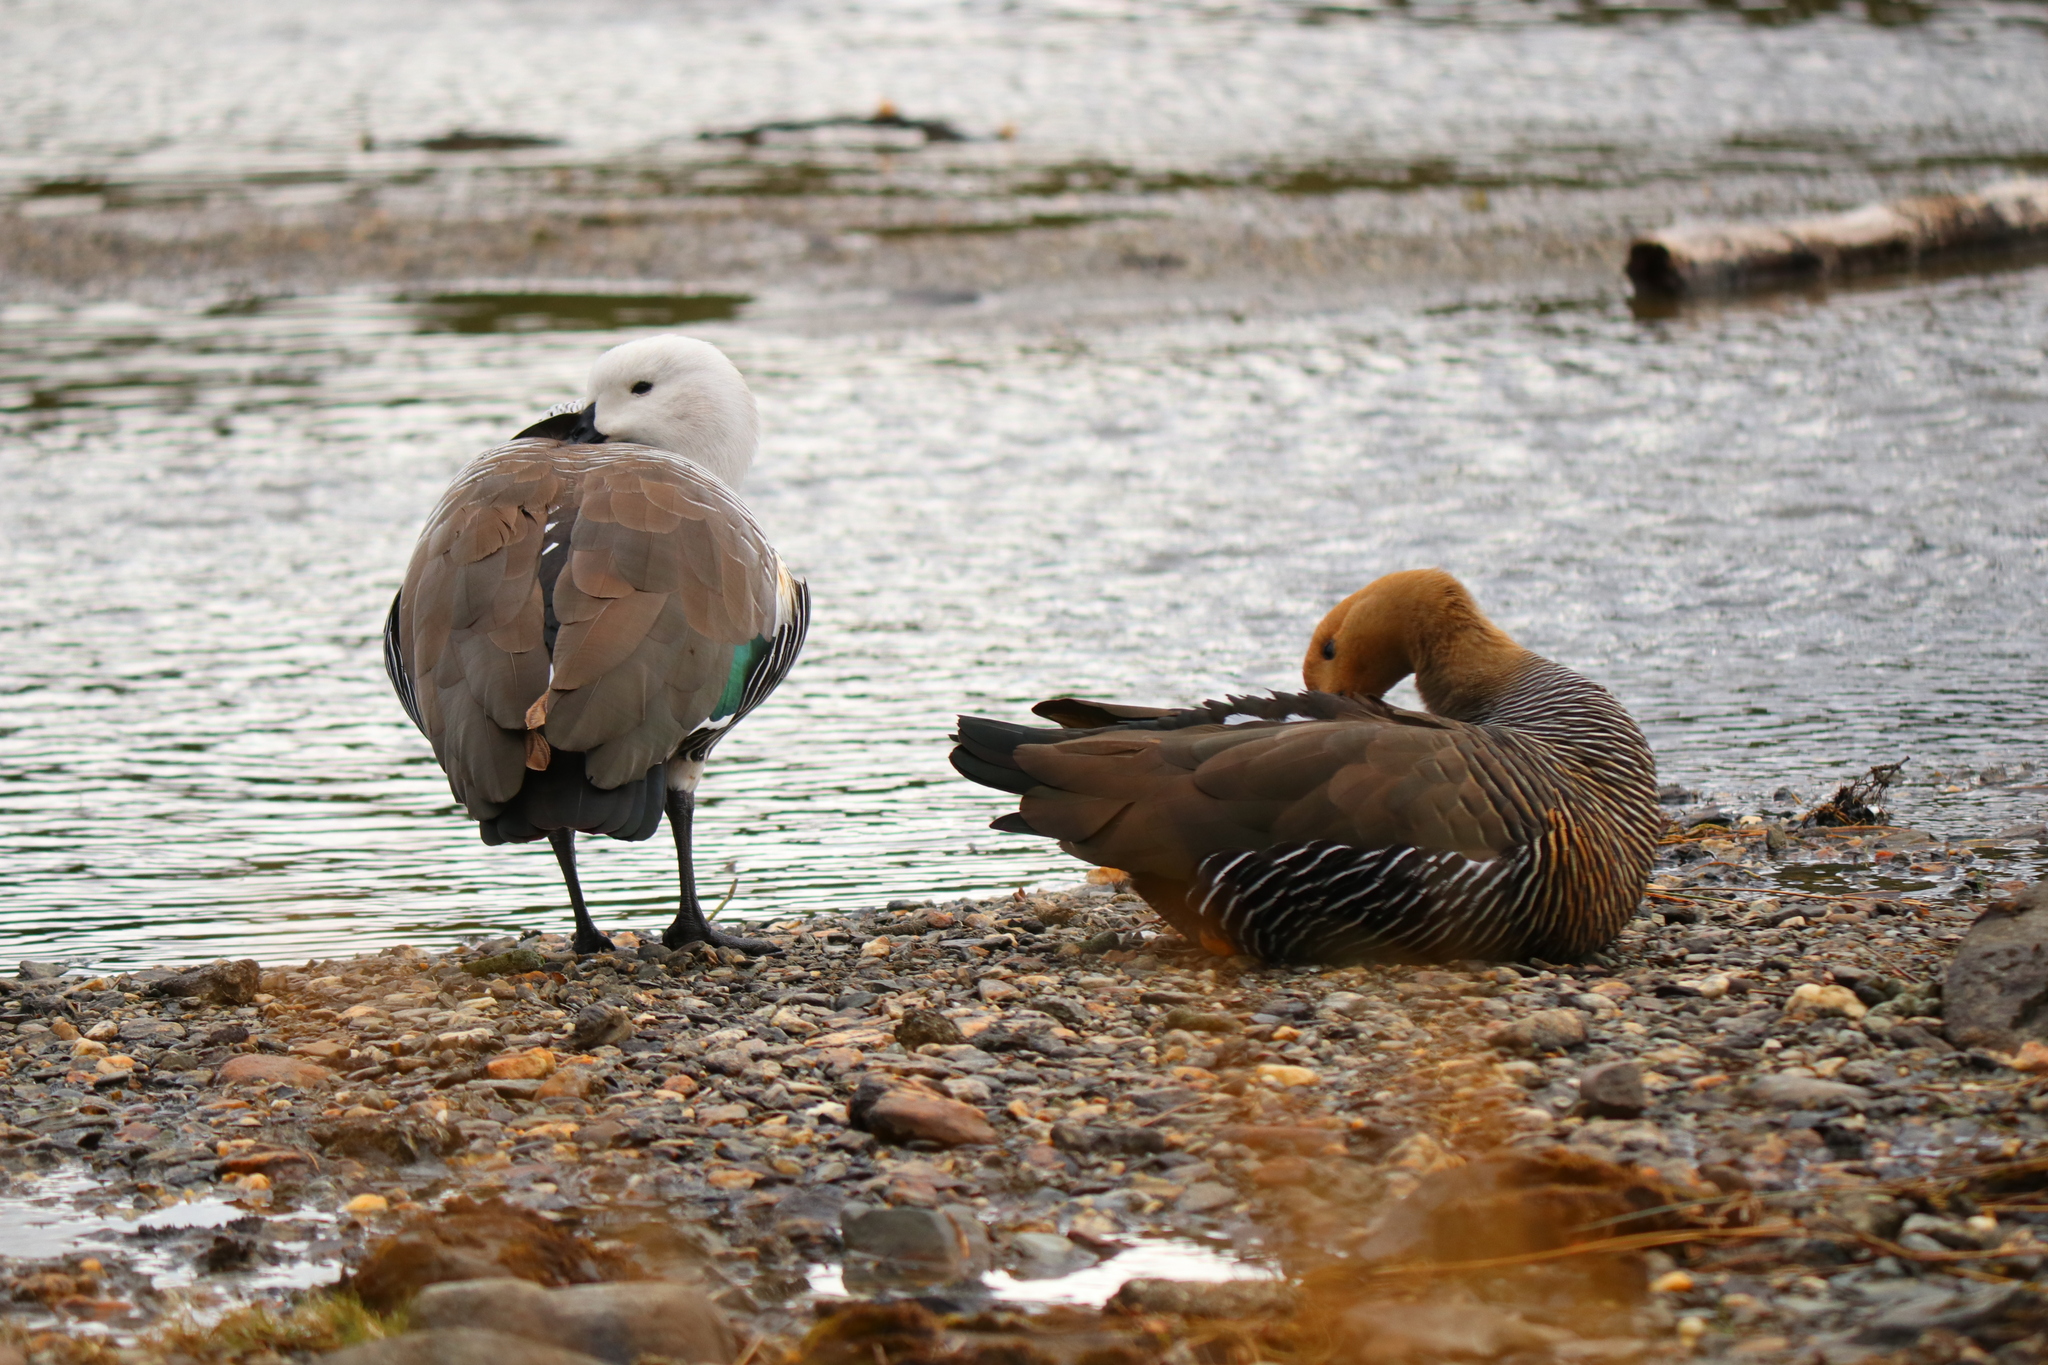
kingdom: Animalia
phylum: Chordata
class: Aves
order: Anseriformes
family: Anatidae
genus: Chloephaga
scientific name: Chloephaga picta
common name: Upland goose
